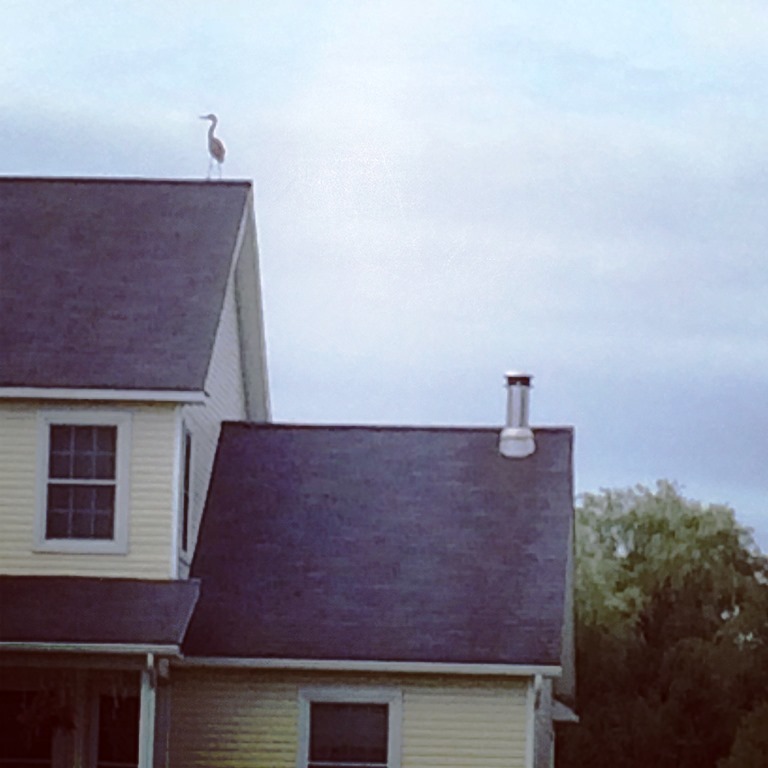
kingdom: Animalia
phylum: Chordata
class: Aves
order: Pelecaniformes
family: Ardeidae
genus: Ardea
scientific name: Ardea herodias
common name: Great blue heron
